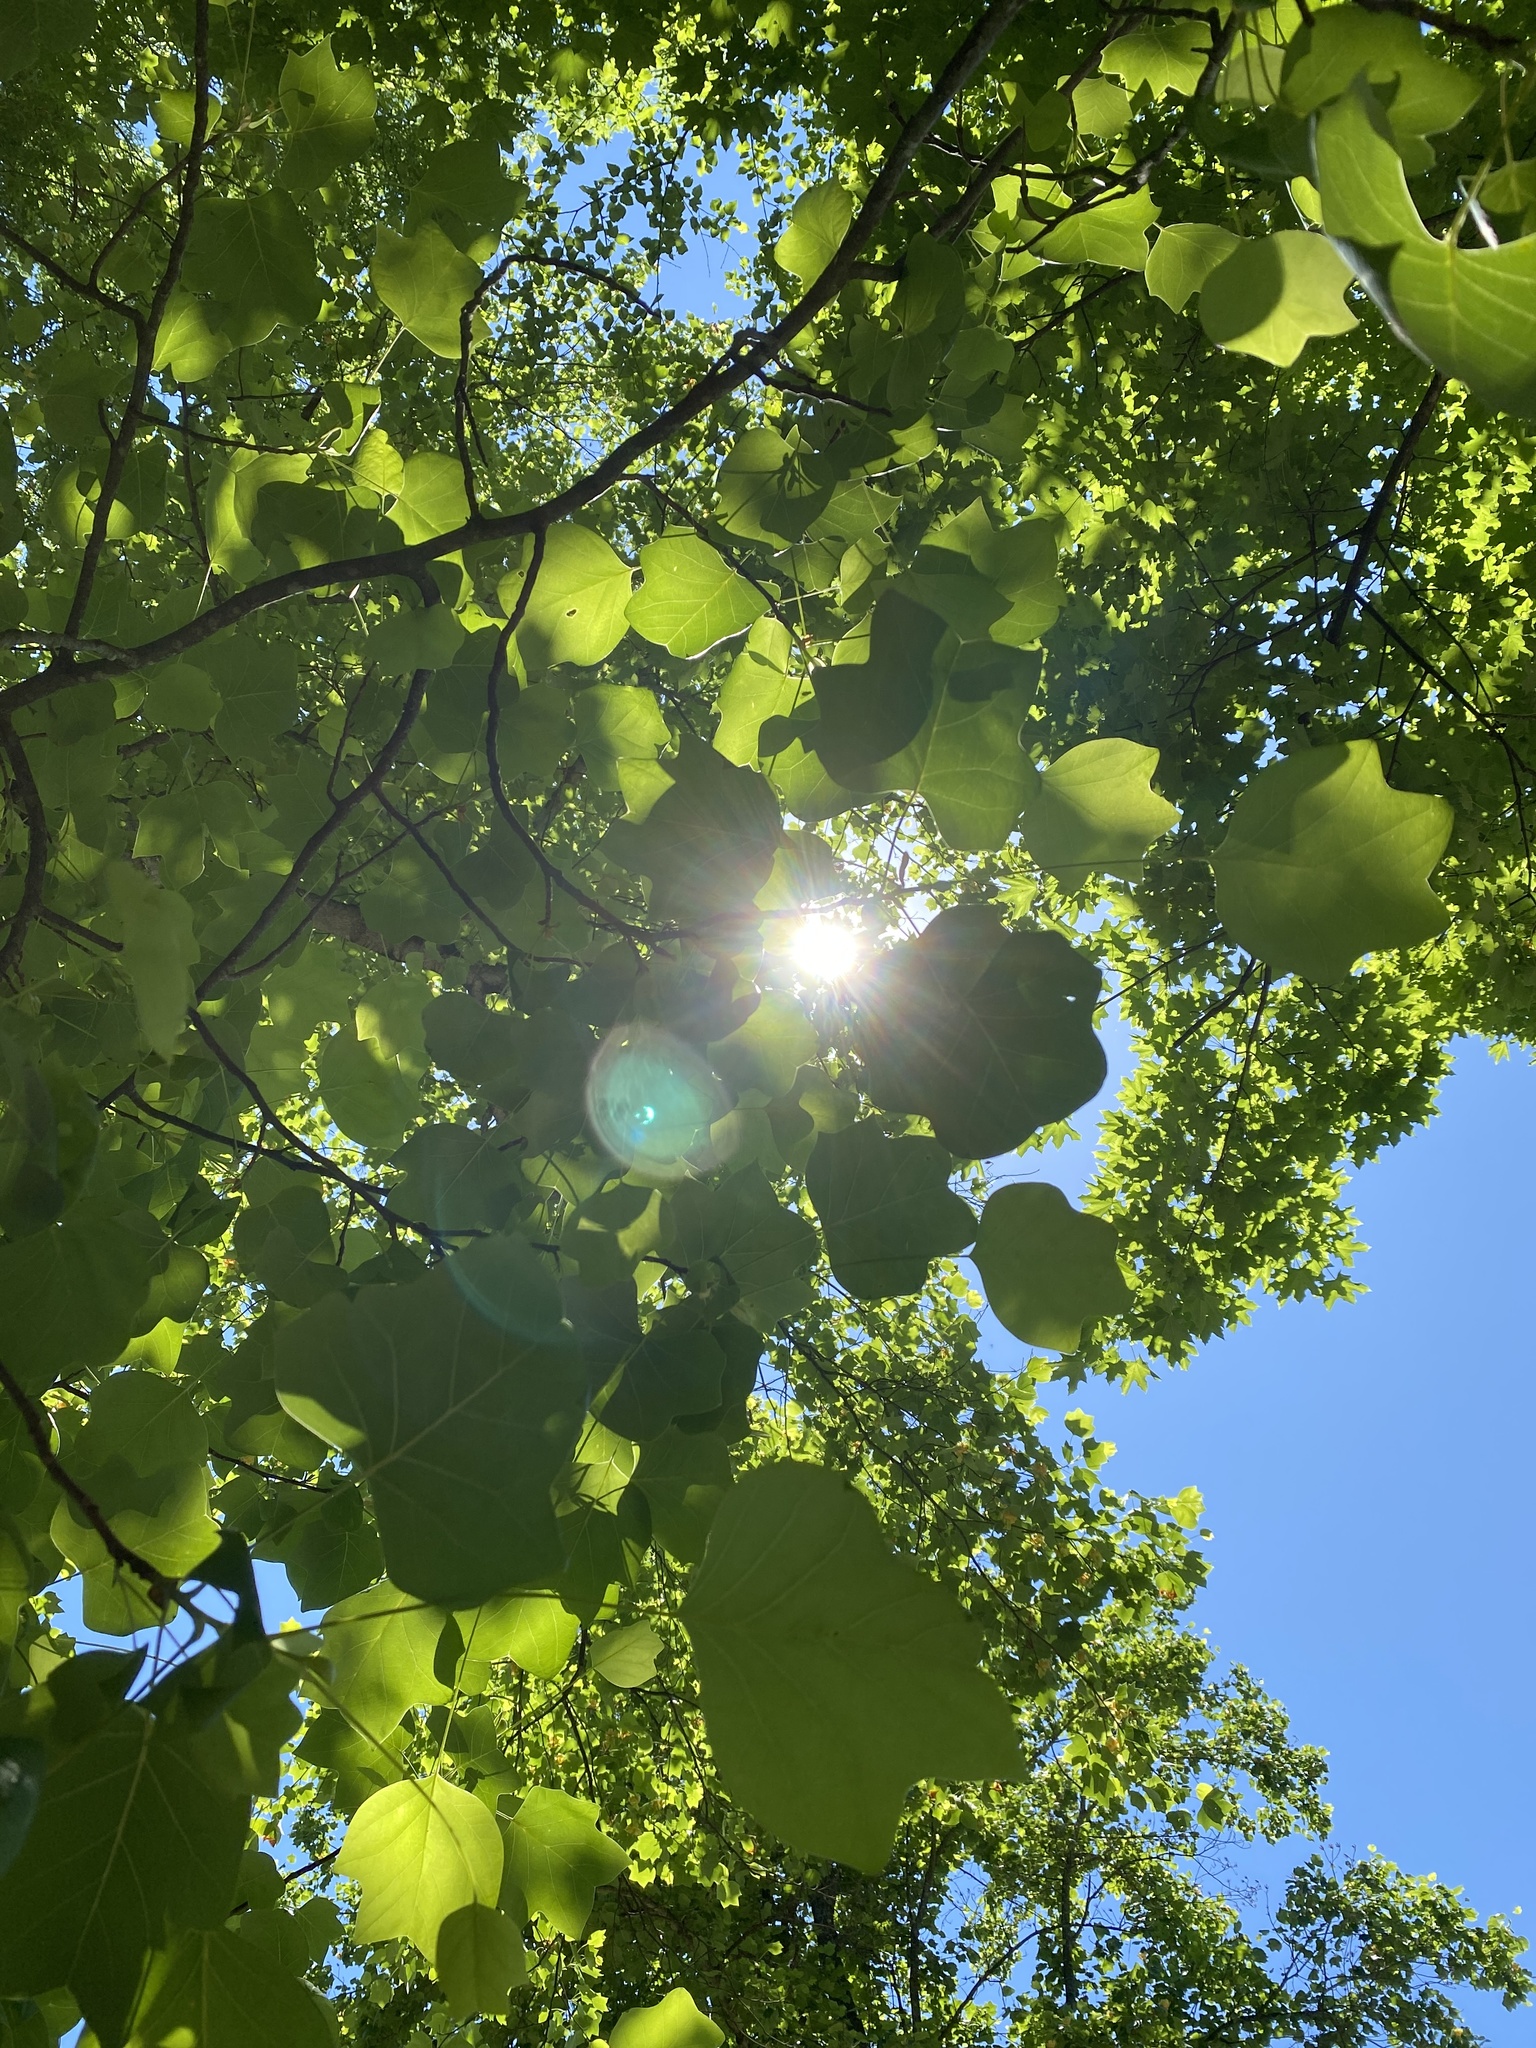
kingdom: Plantae
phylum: Tracheophyta
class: Magnoliopsida
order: Magnoliales
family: Magnoliaceae
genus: Liriodendron
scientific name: Liriodendron tulipifera
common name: Tulip tree
